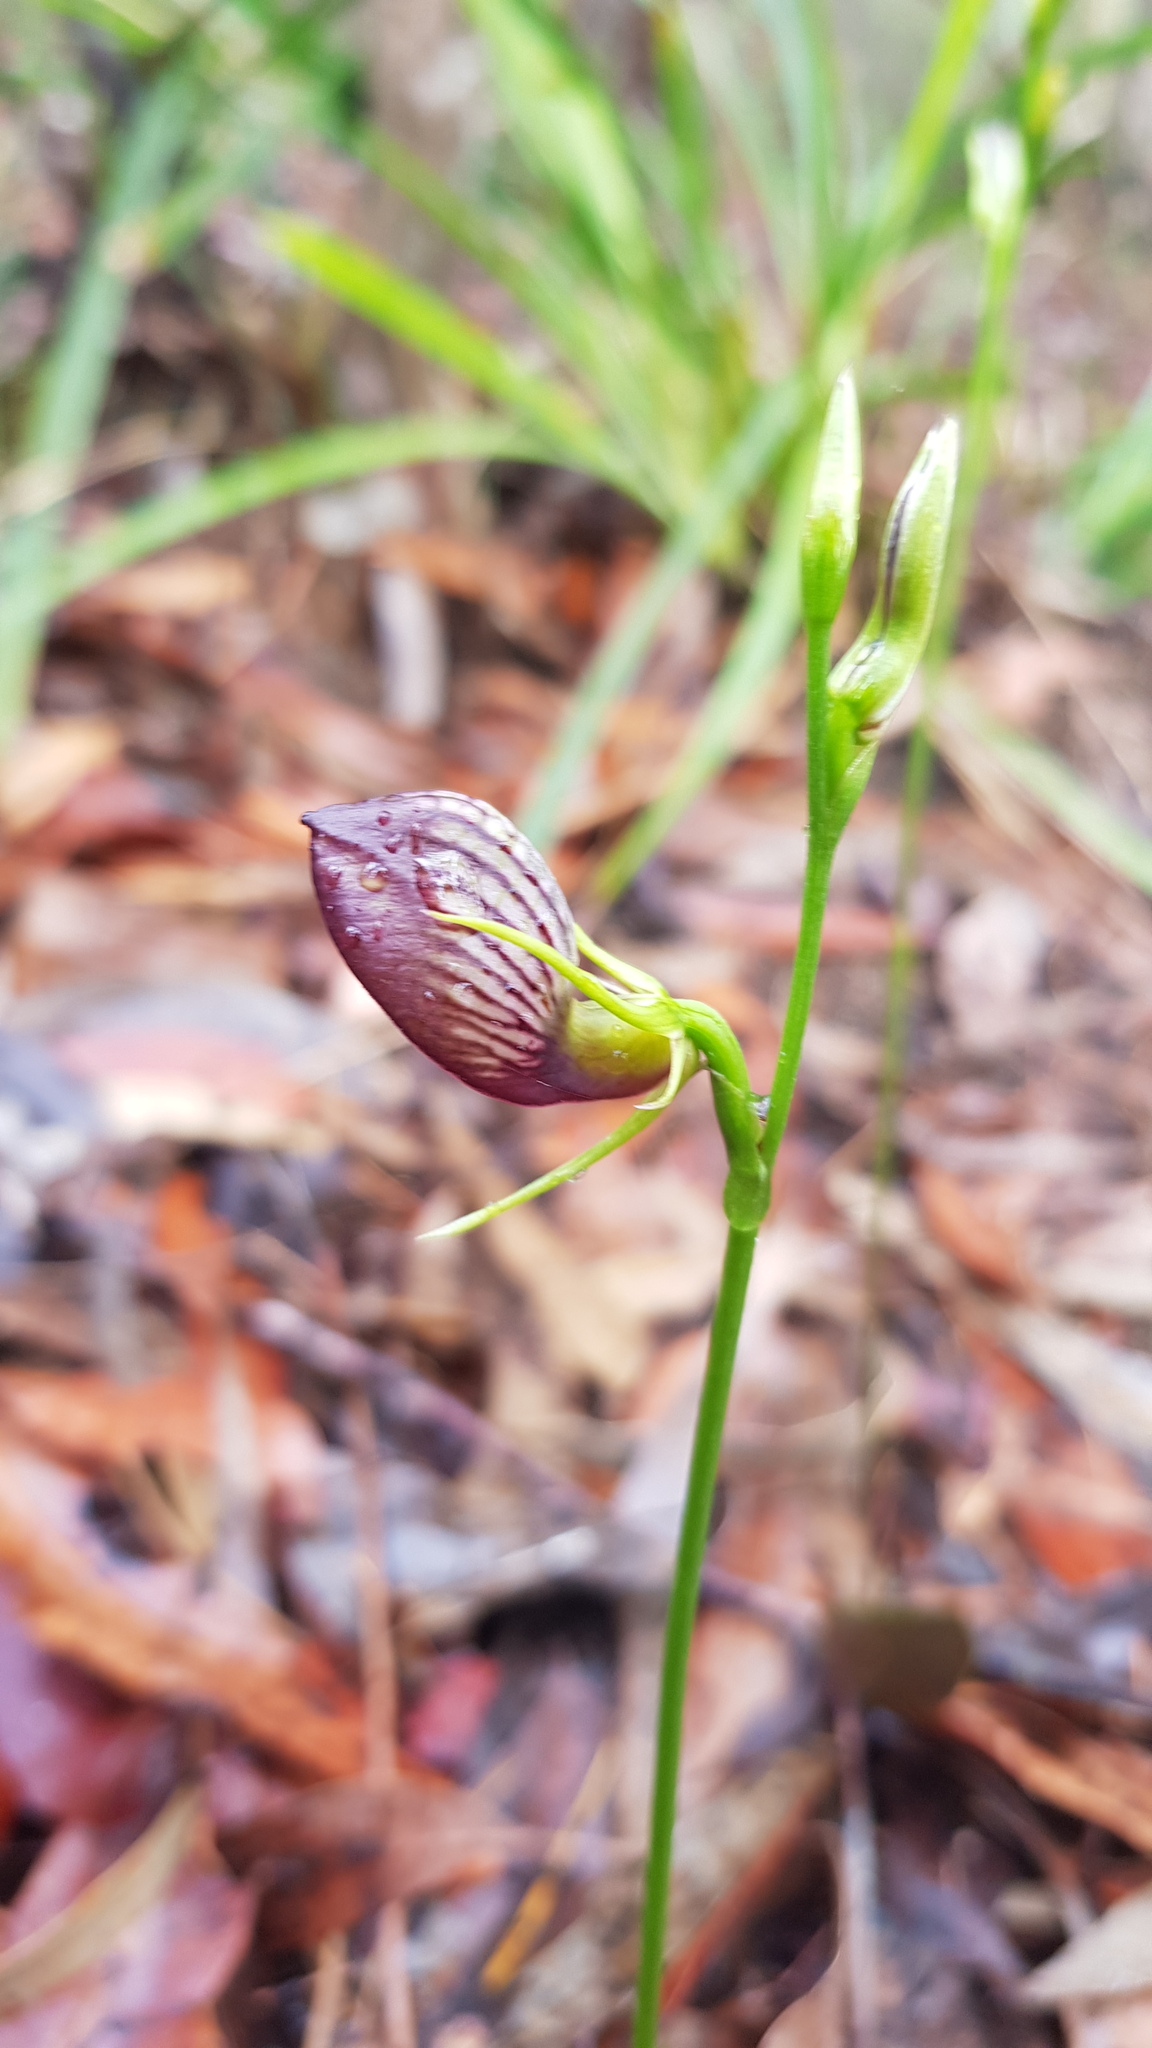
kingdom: Plantae
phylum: Tracheophyta
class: Liliopsida
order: Asparagales
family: Orchidaceae
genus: Cryptostylis
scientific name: Cryptostylis erecta
